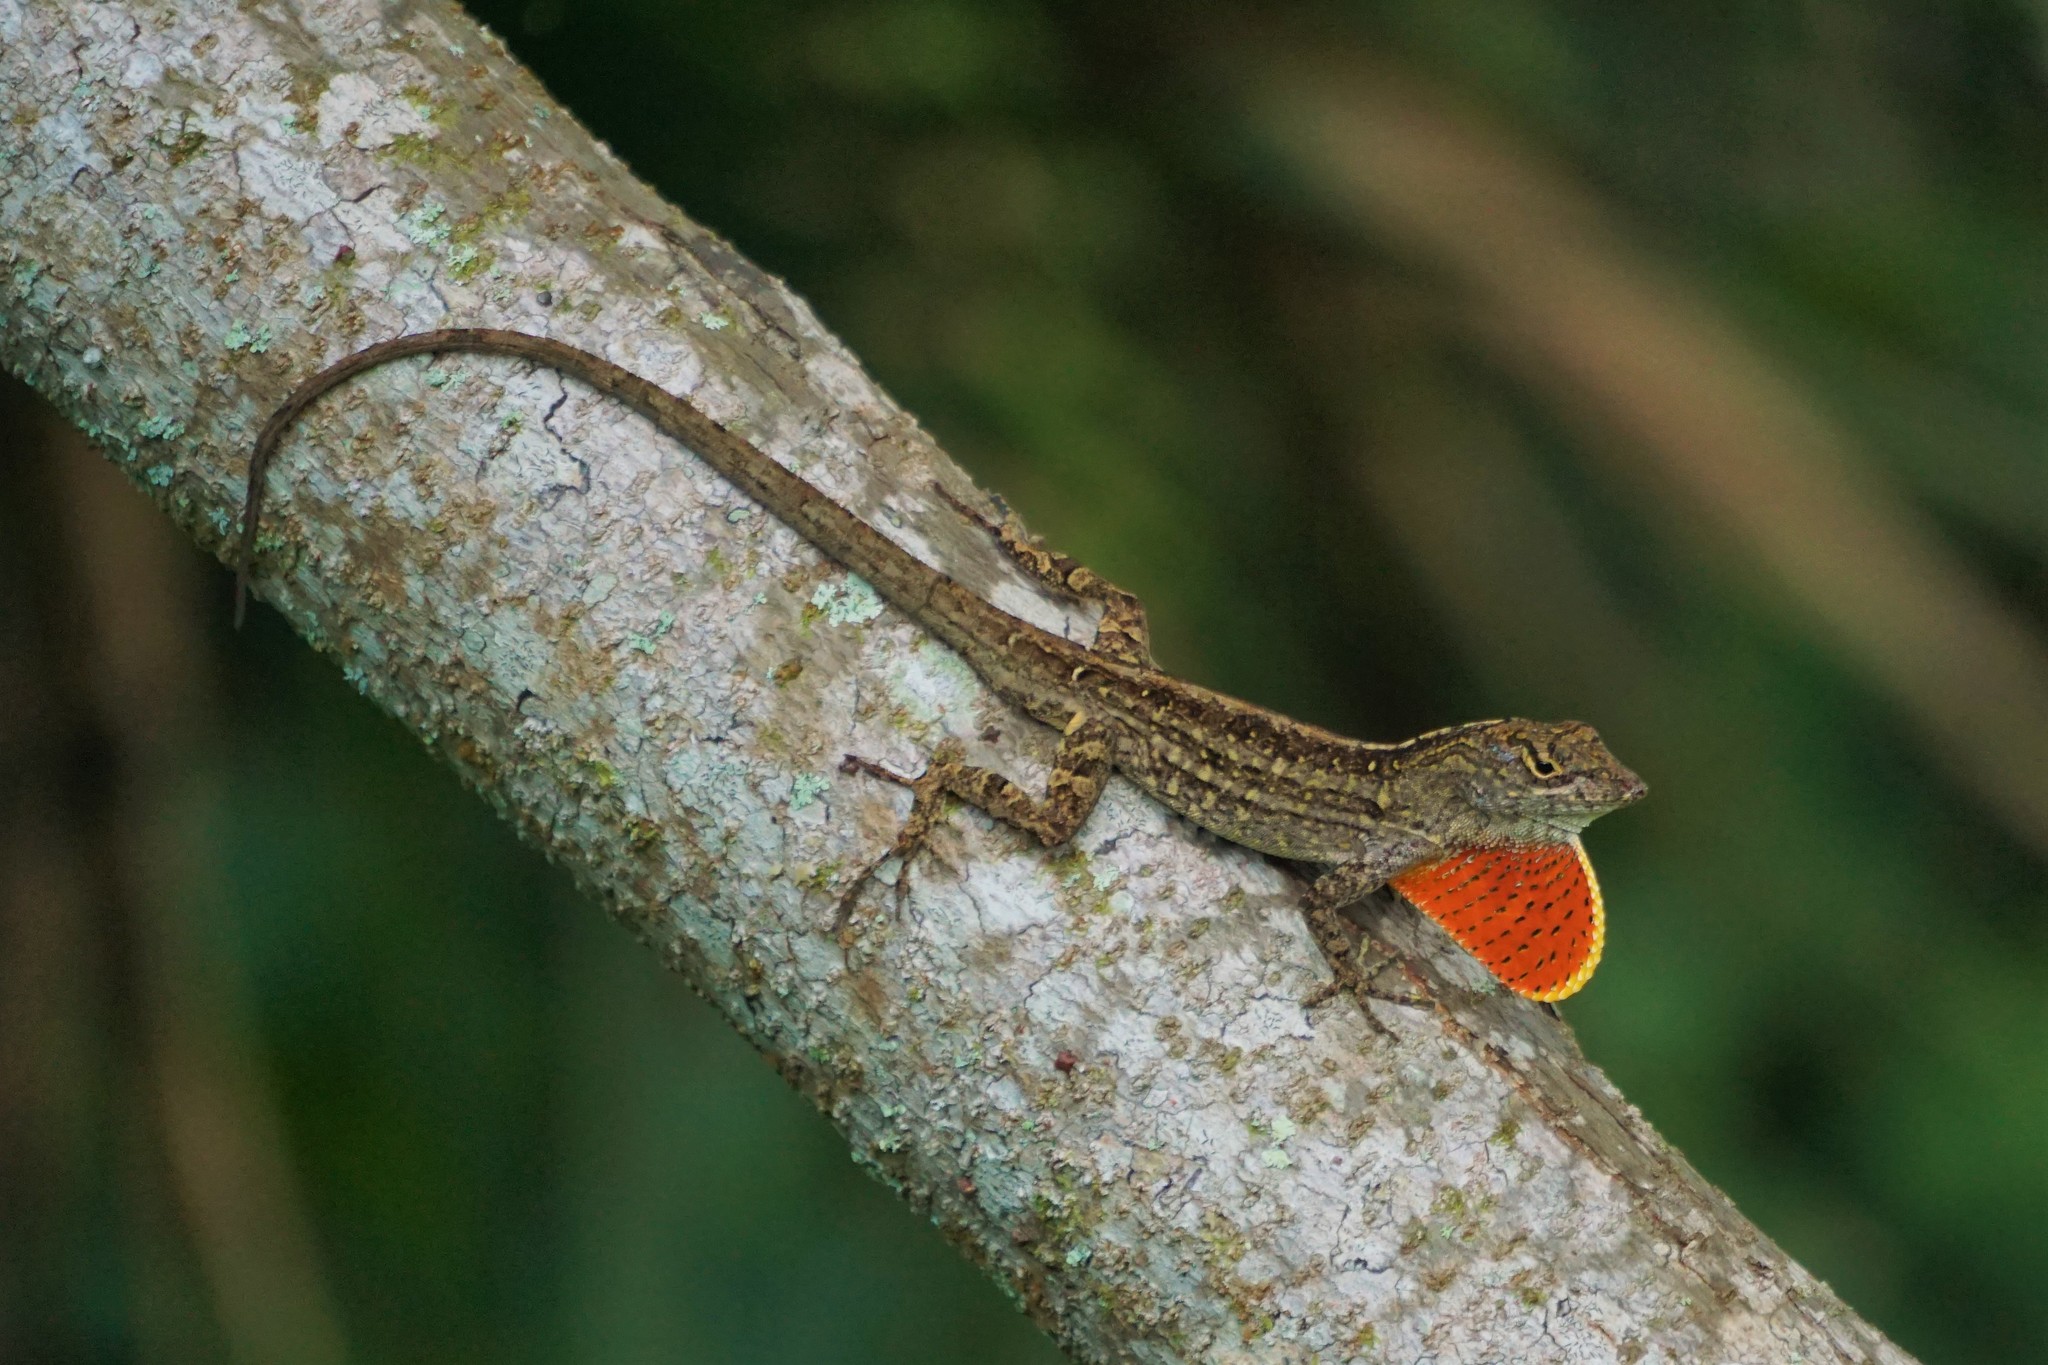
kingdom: Animalia
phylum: Chordata
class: Squamata
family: Dactyloidae
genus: Anolis
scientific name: Anolis sagrei
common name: Brown anole
